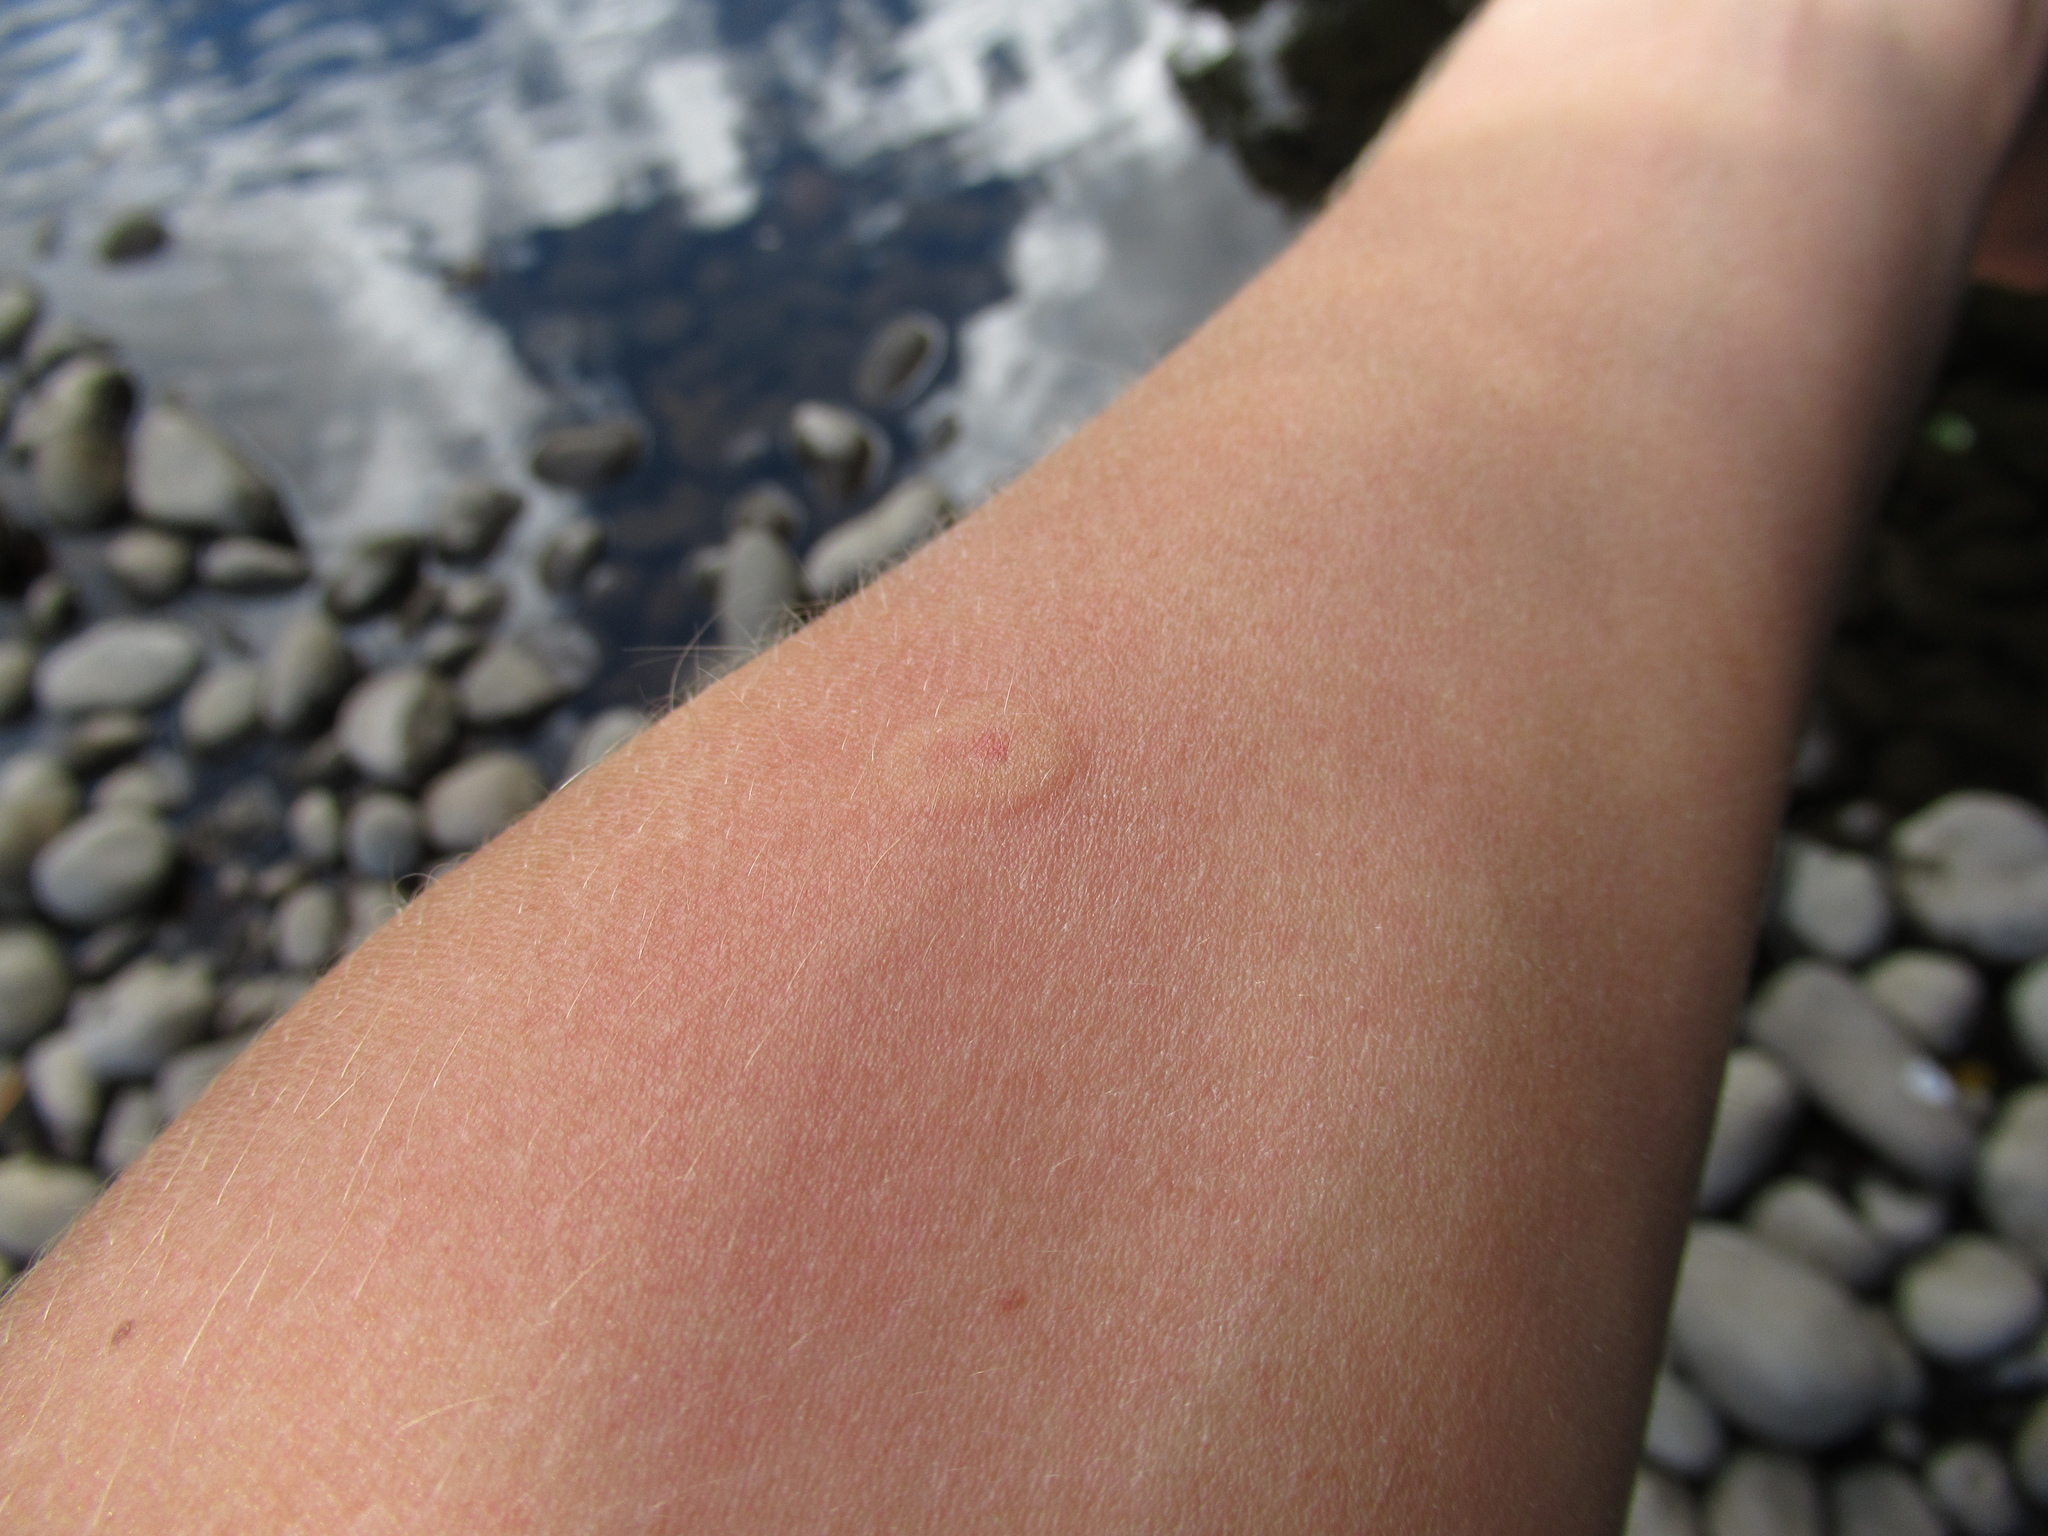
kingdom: Animalia
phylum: Arthropoda
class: Insecta
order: Hymenoptera
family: Vespidae
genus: Vespula
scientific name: Vespula vulgaris
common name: Common wasp
